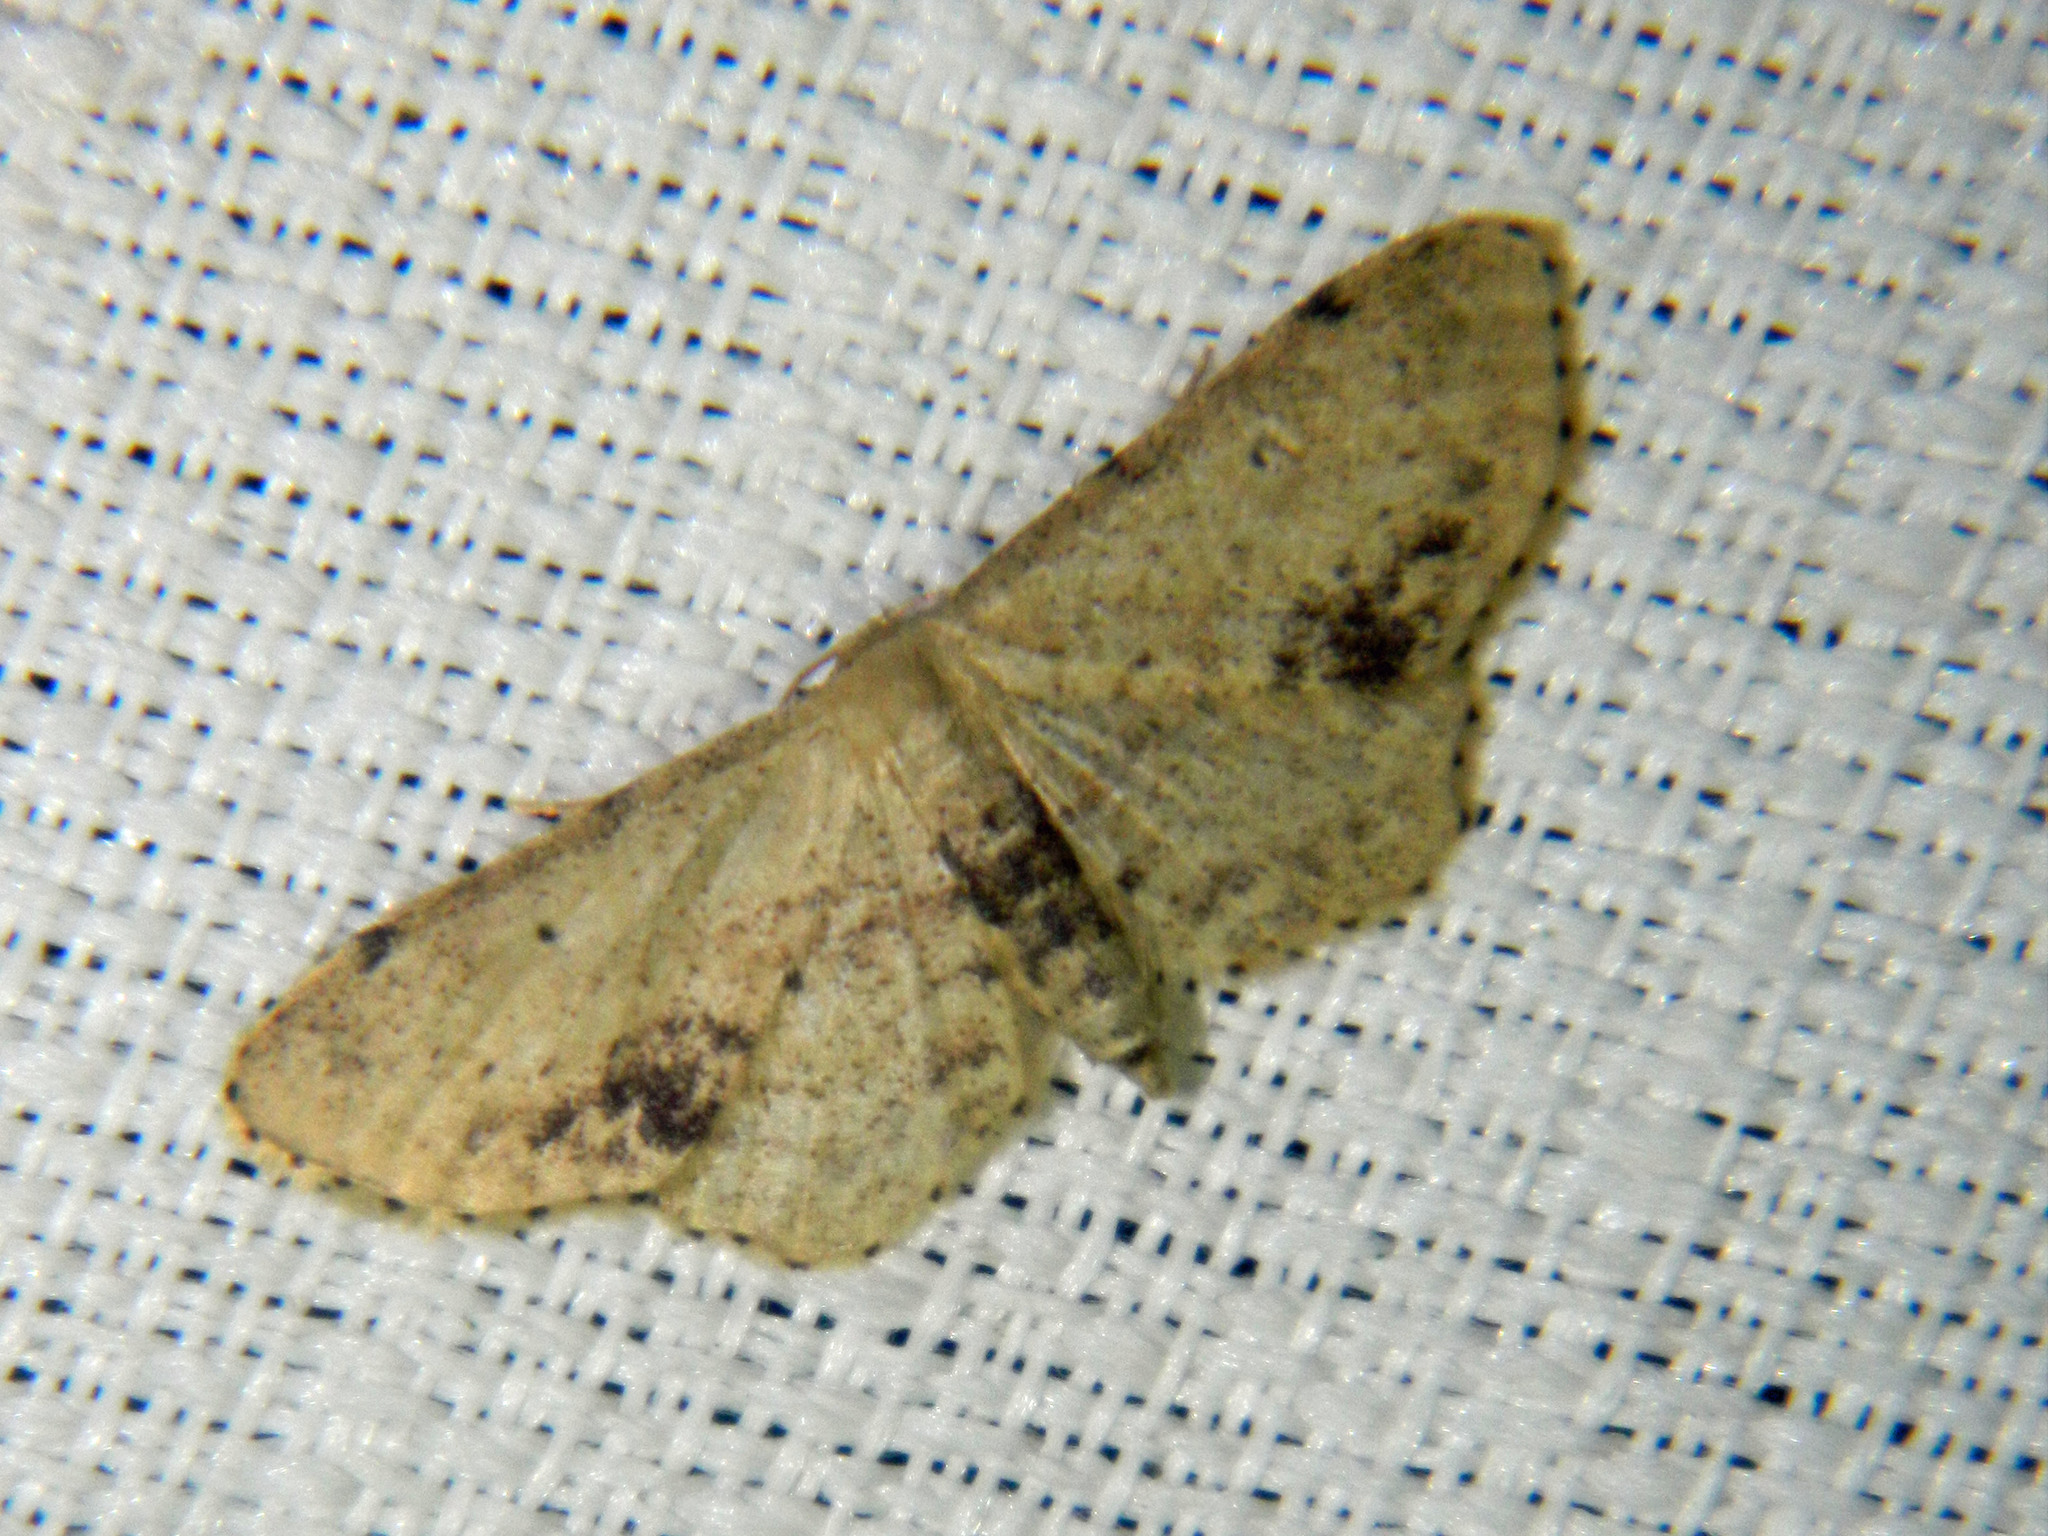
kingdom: Animalia
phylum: Arthropoda
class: Insecta
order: Lepidoptera
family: Geometridae
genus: Idaea
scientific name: Idaea dimidiata
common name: Single-dotted wave
